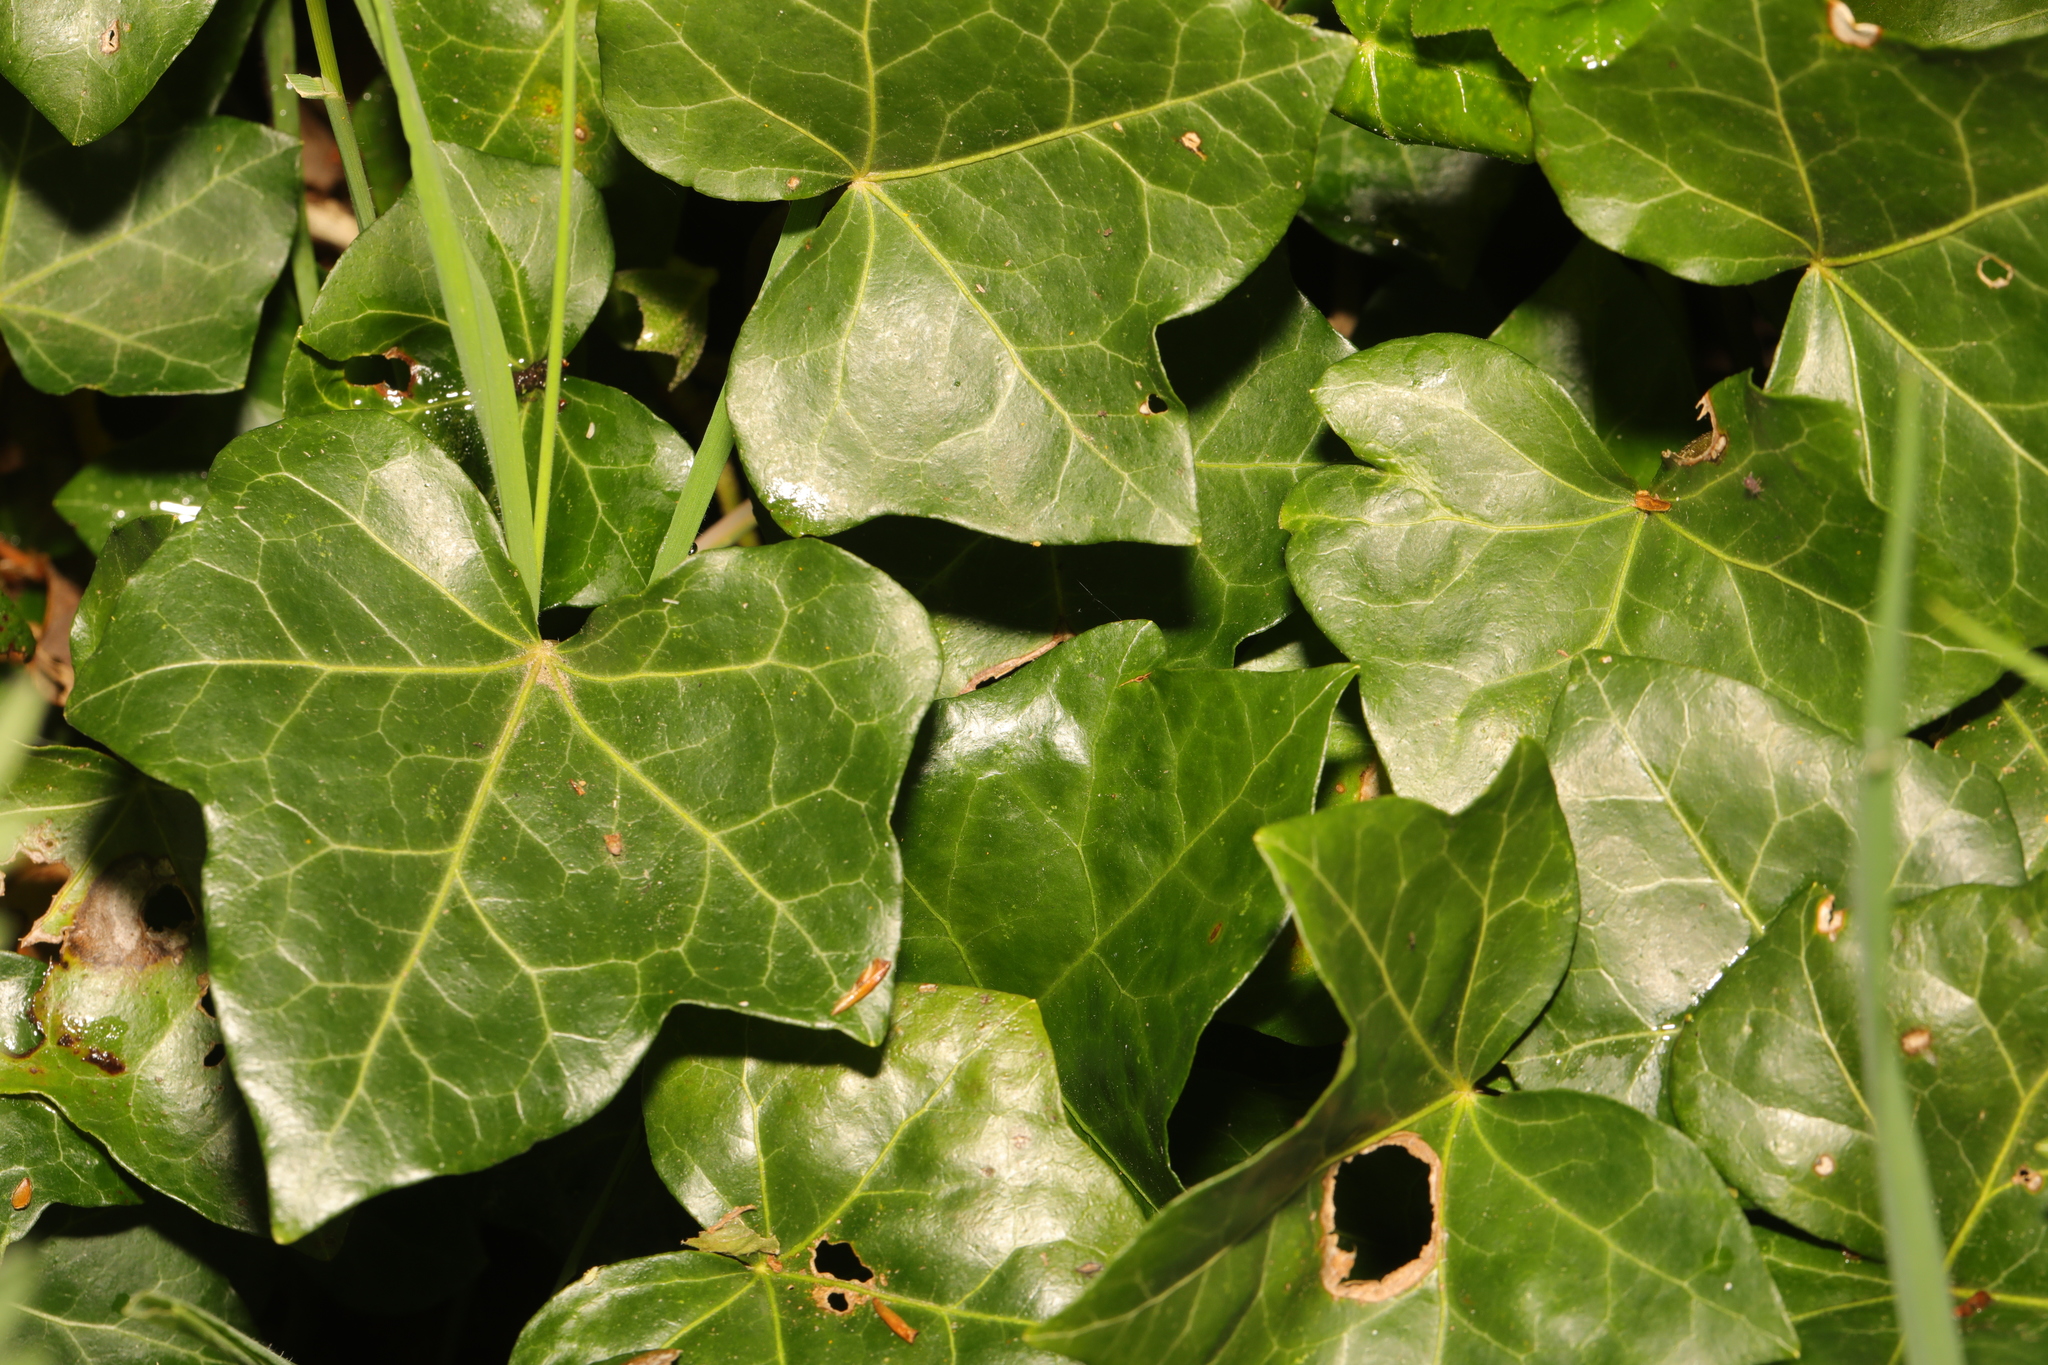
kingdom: Plantae
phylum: Tracheophyta
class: Magnoliopsida
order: Apiales
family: Araliaceae
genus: Hedera
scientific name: Hedera helix
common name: Ivy
